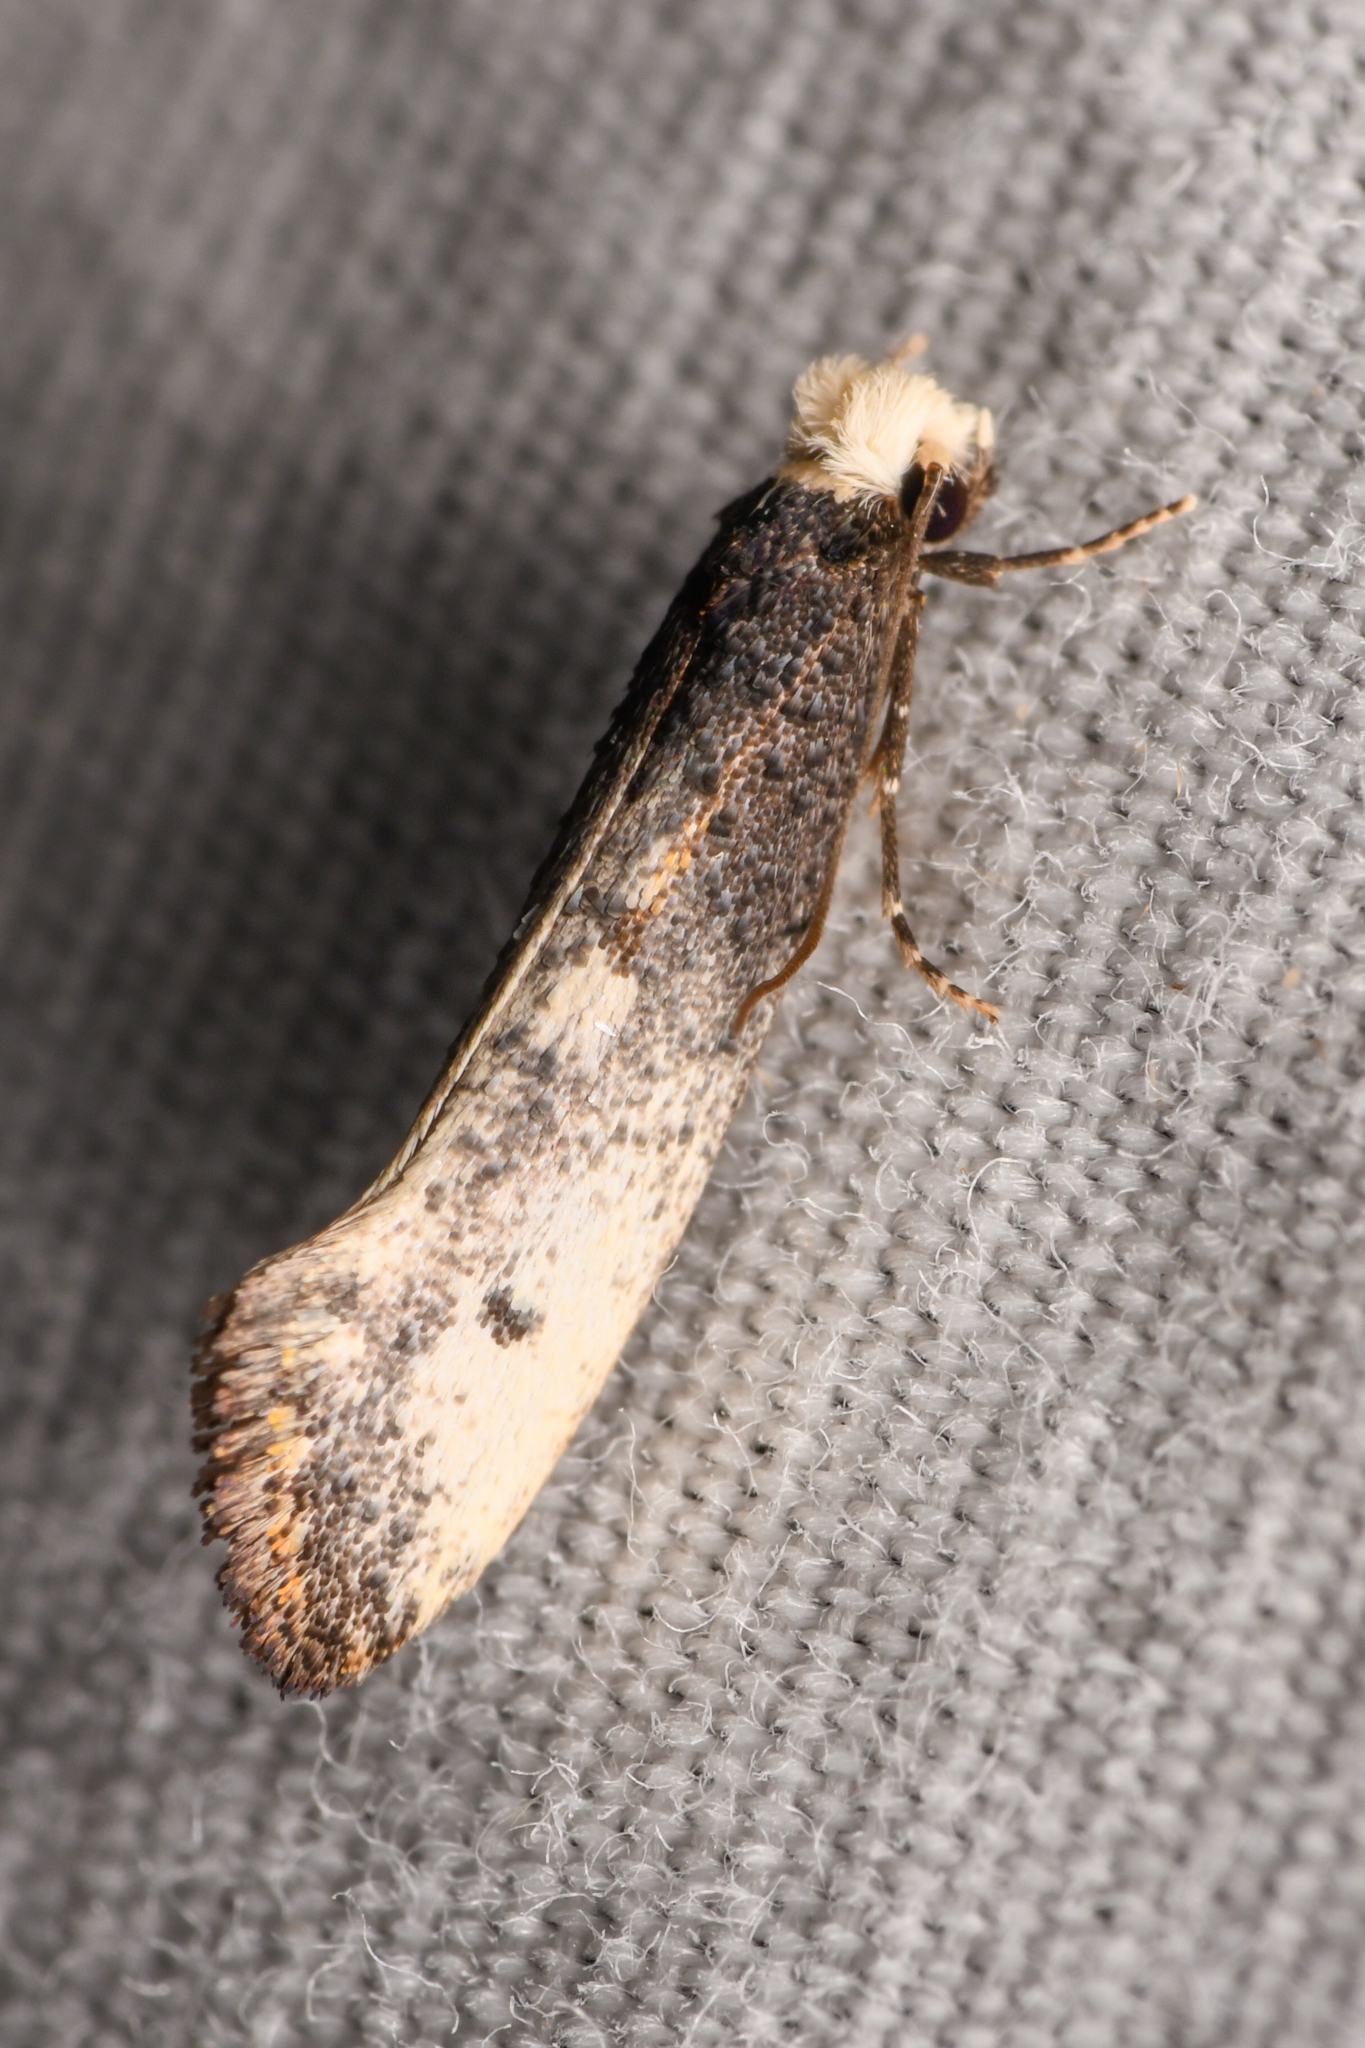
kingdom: Animalia
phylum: Arthropoda
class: Insecta
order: Lepidoptera
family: Tineidae
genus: Tinea
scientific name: Tinea occidentella
